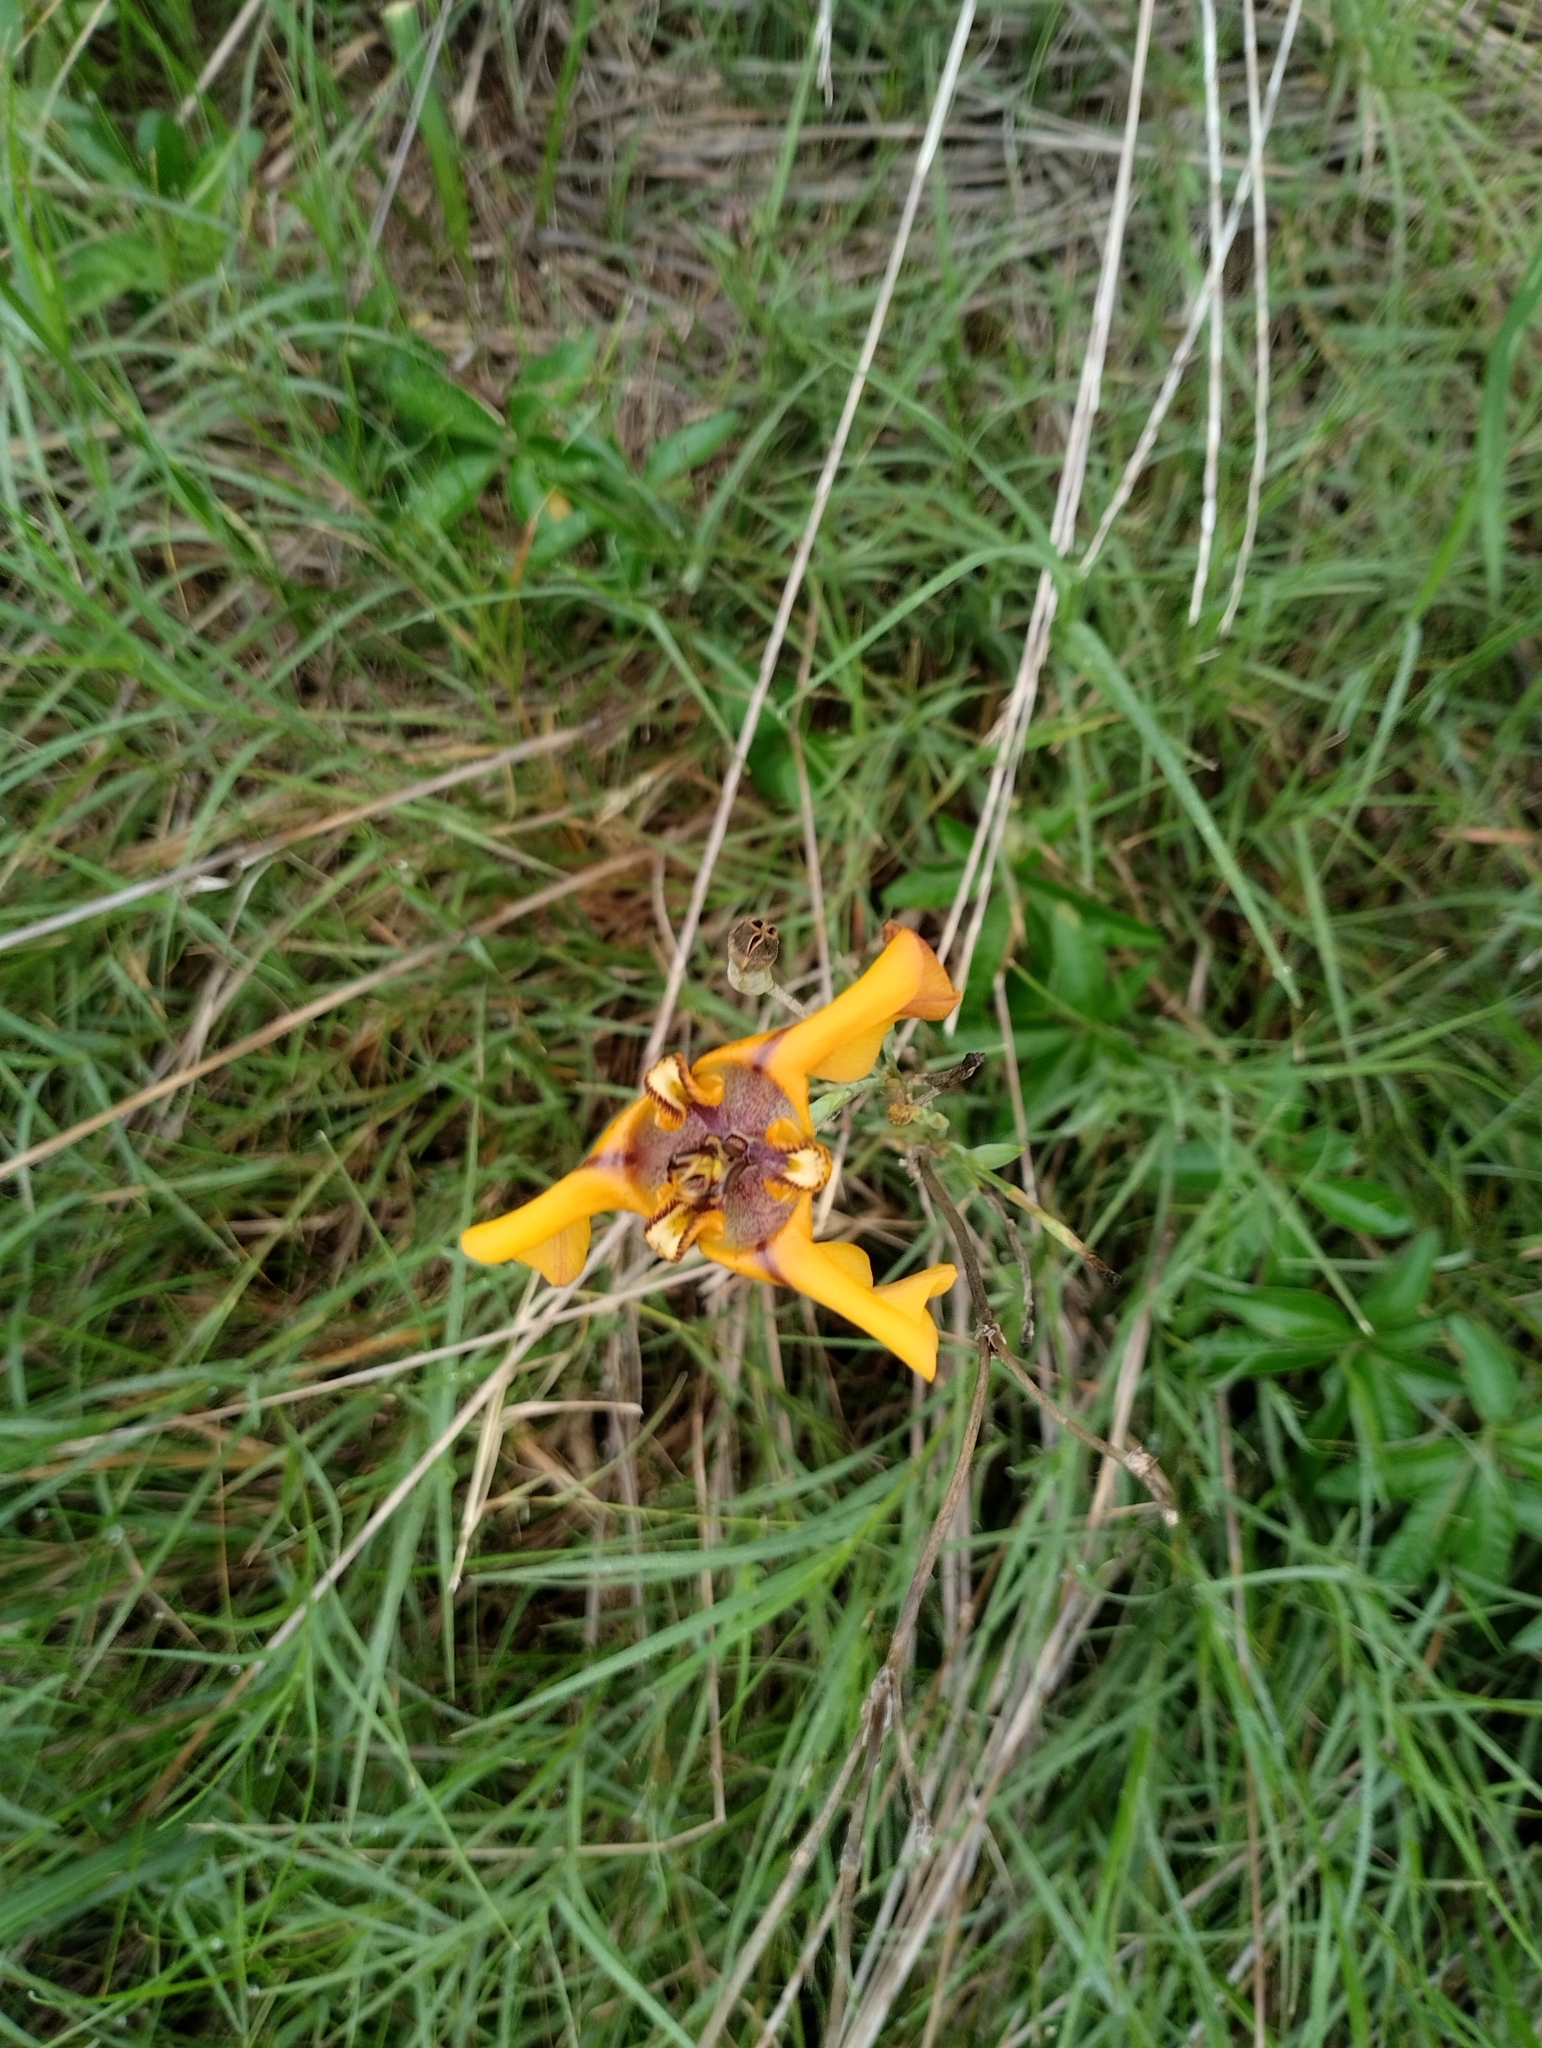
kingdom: Plantae
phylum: Tracheophyta
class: Liliopsida
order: Asparagales
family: Iridaceae
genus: Cypella
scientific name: Cypella herbertii
